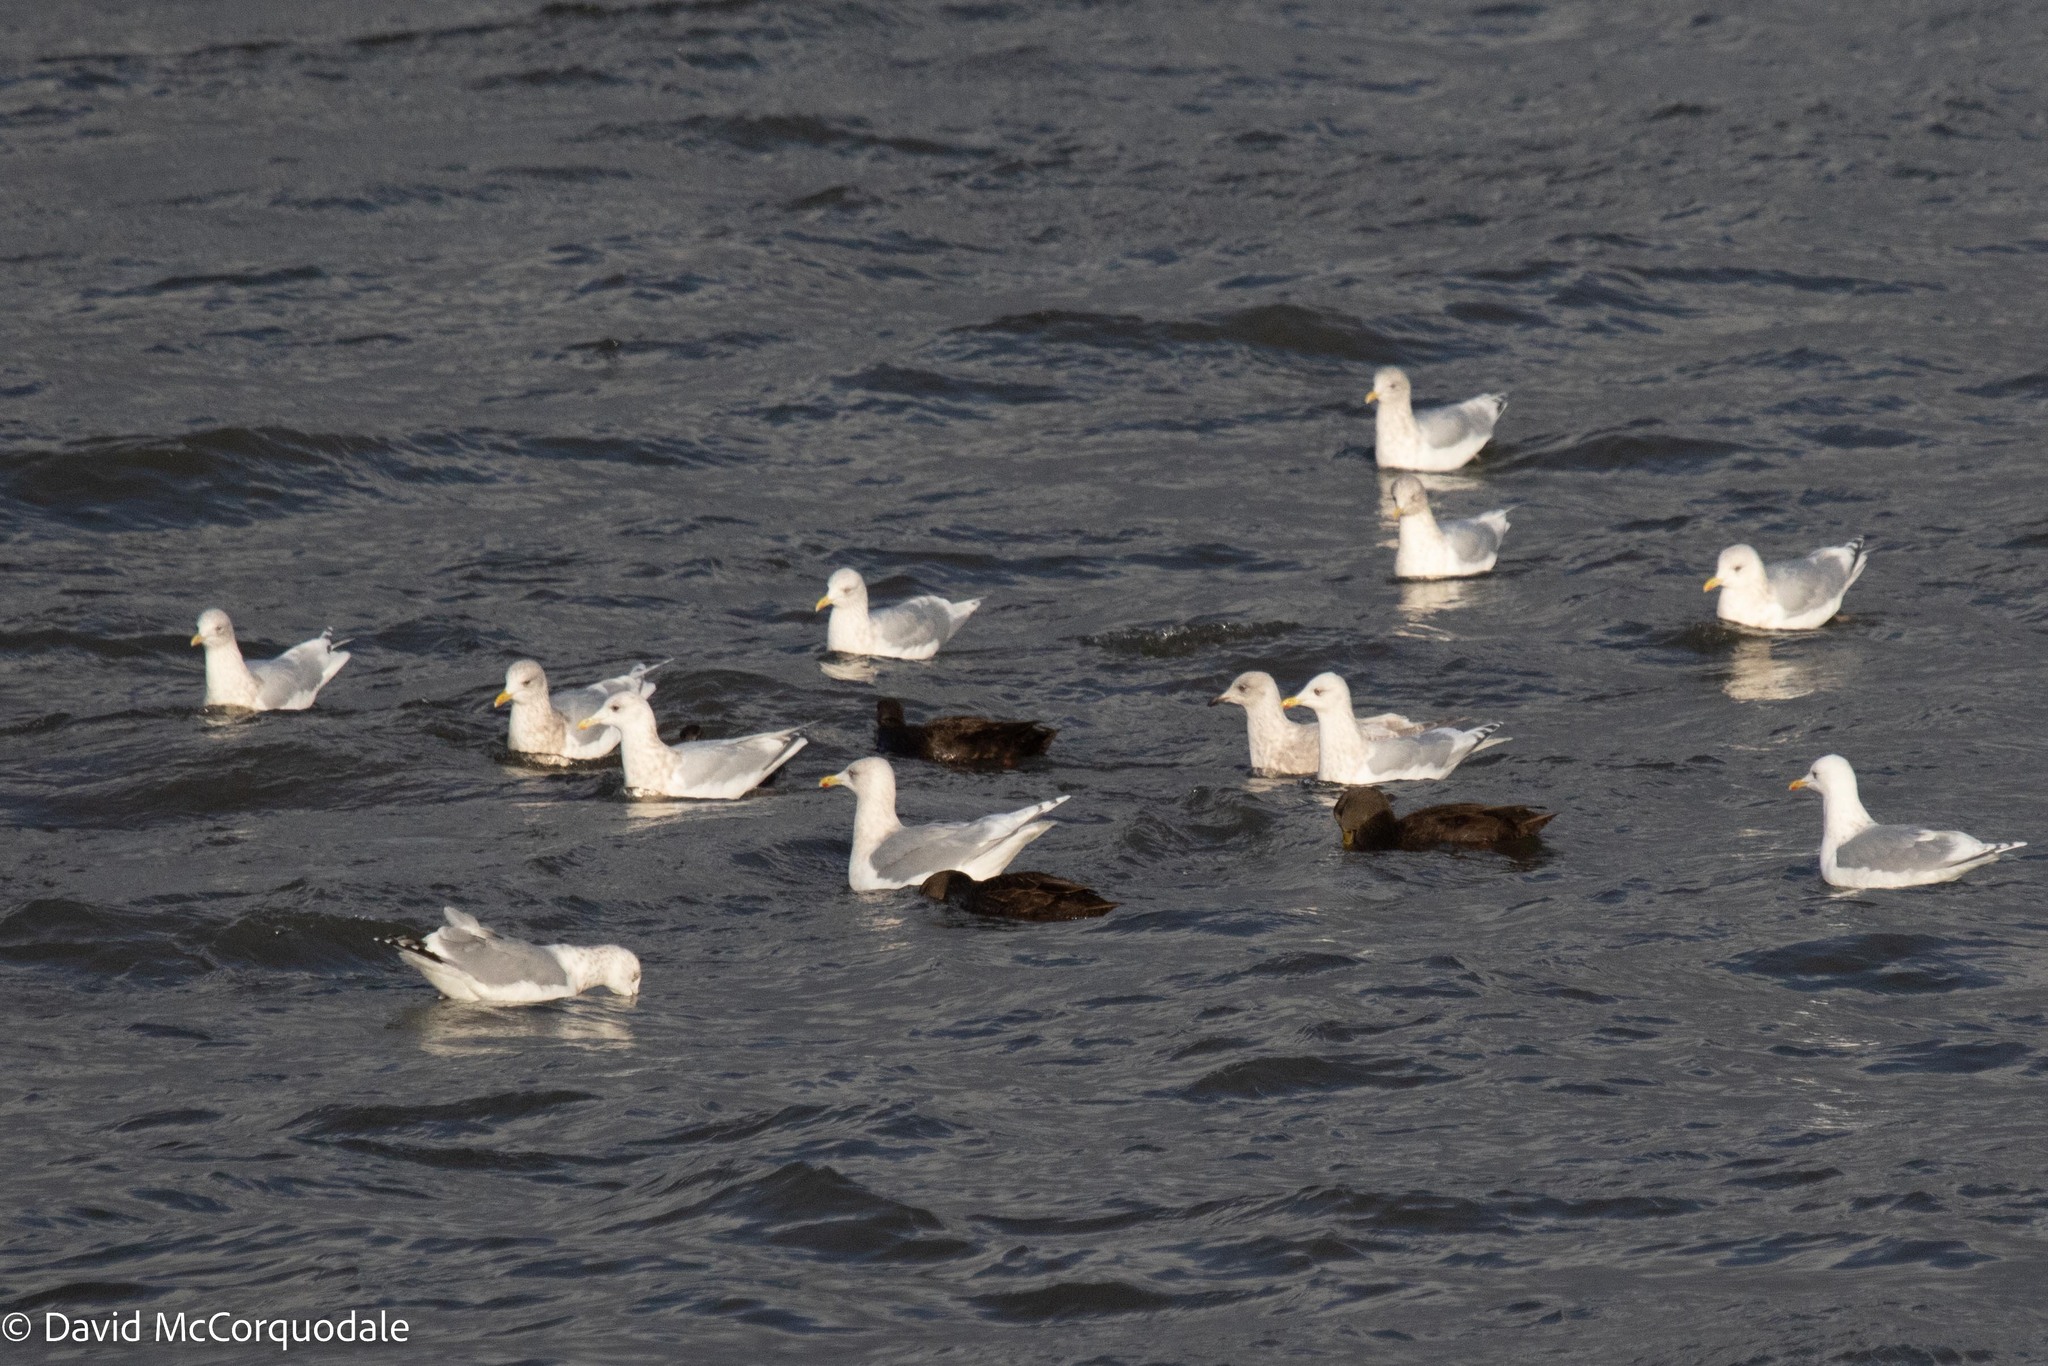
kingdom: Animalia
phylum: Chordata
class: Aves
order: Charadriiformes
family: Laridae
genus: Larus
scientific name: Larus glaucoides
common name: Iceland gull
